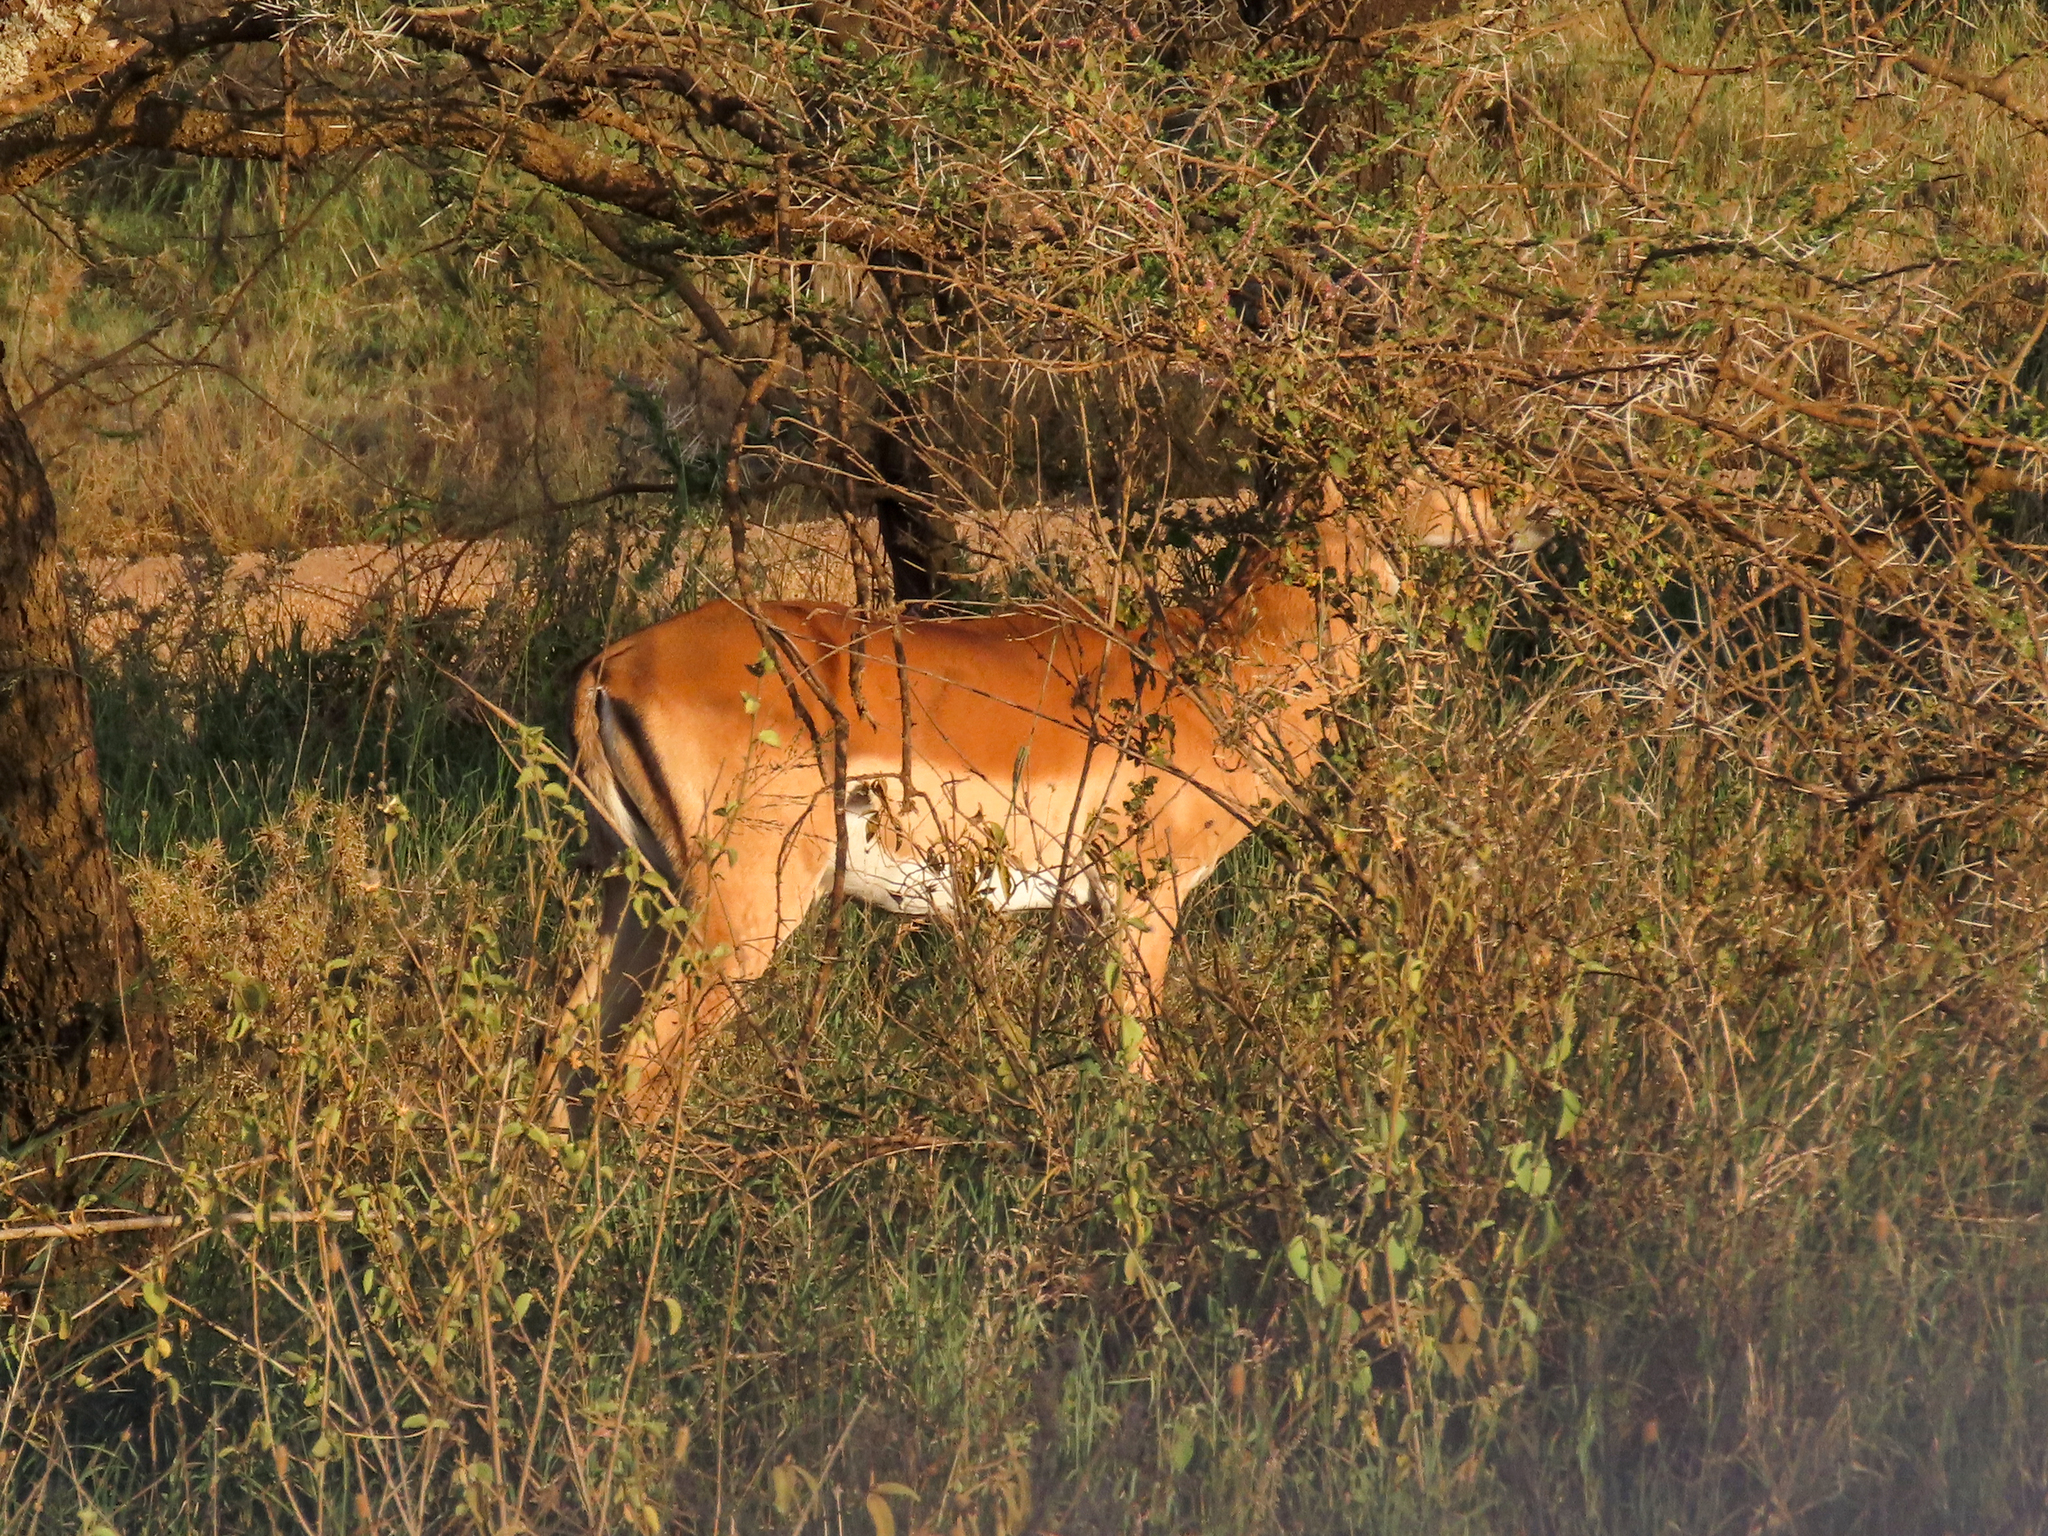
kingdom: Animalia
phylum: Chordata
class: Mammalia
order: Artiodactyla
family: Bovidae
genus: Aepyceros
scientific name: Aepyceros melampus
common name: Impala
